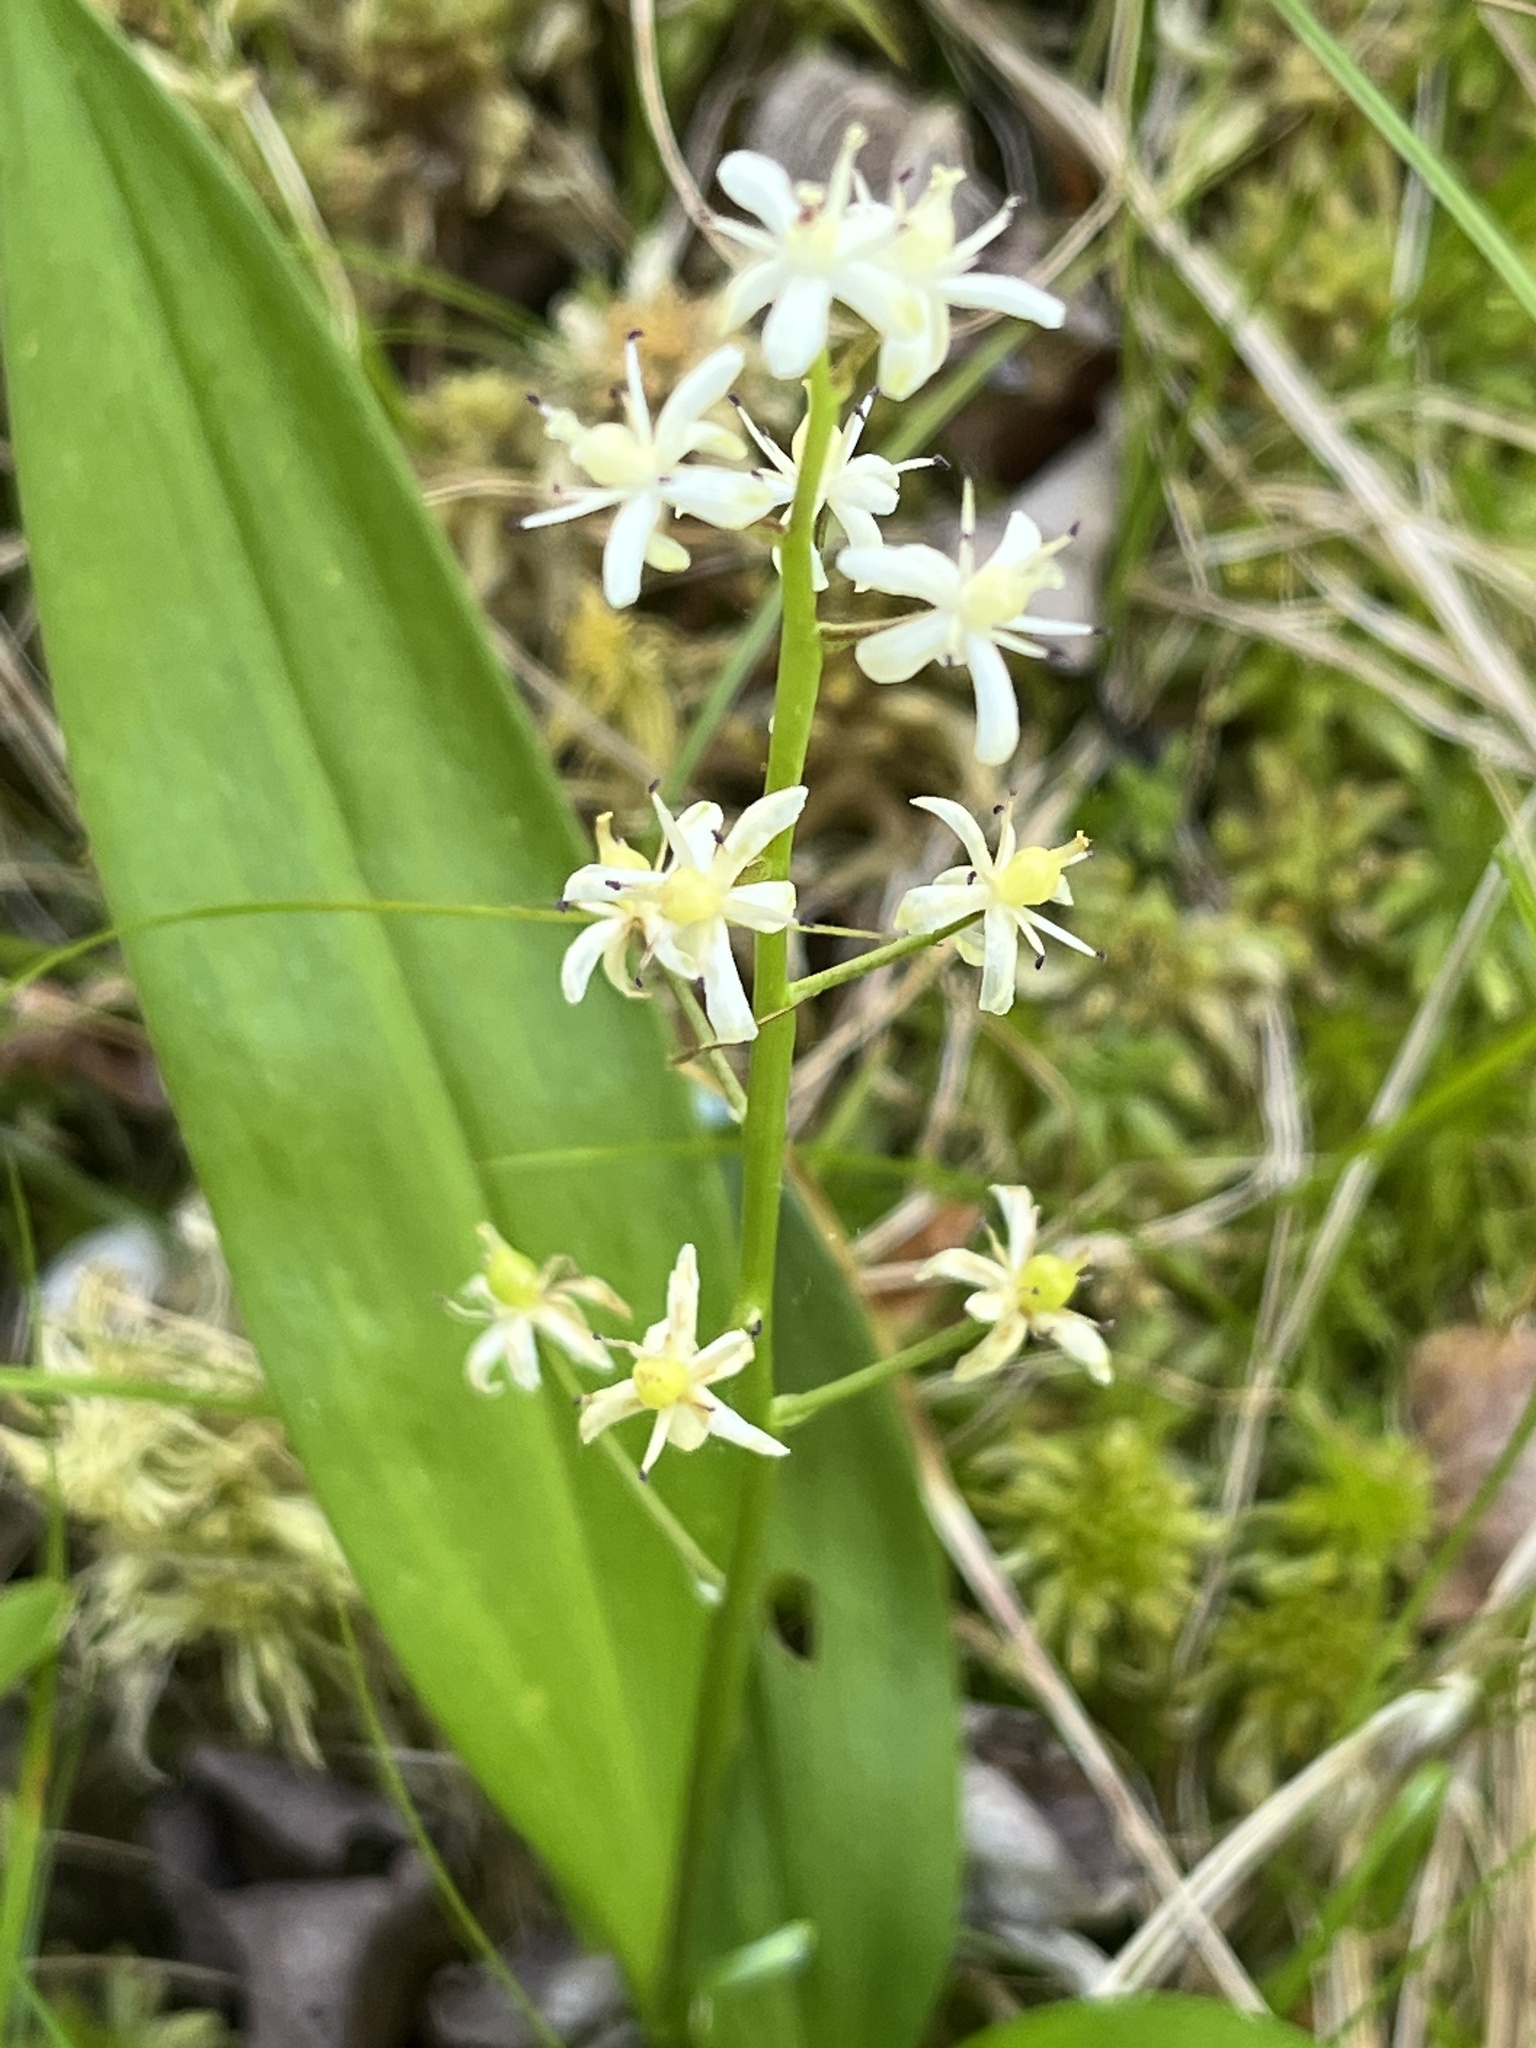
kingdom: Plantae
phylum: Tracheophyta
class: Liliopsida
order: Asparagales
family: Asparagaceae
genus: Maianthemum
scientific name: Maianthemum trifolium
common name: Swamp false solomon's seal
